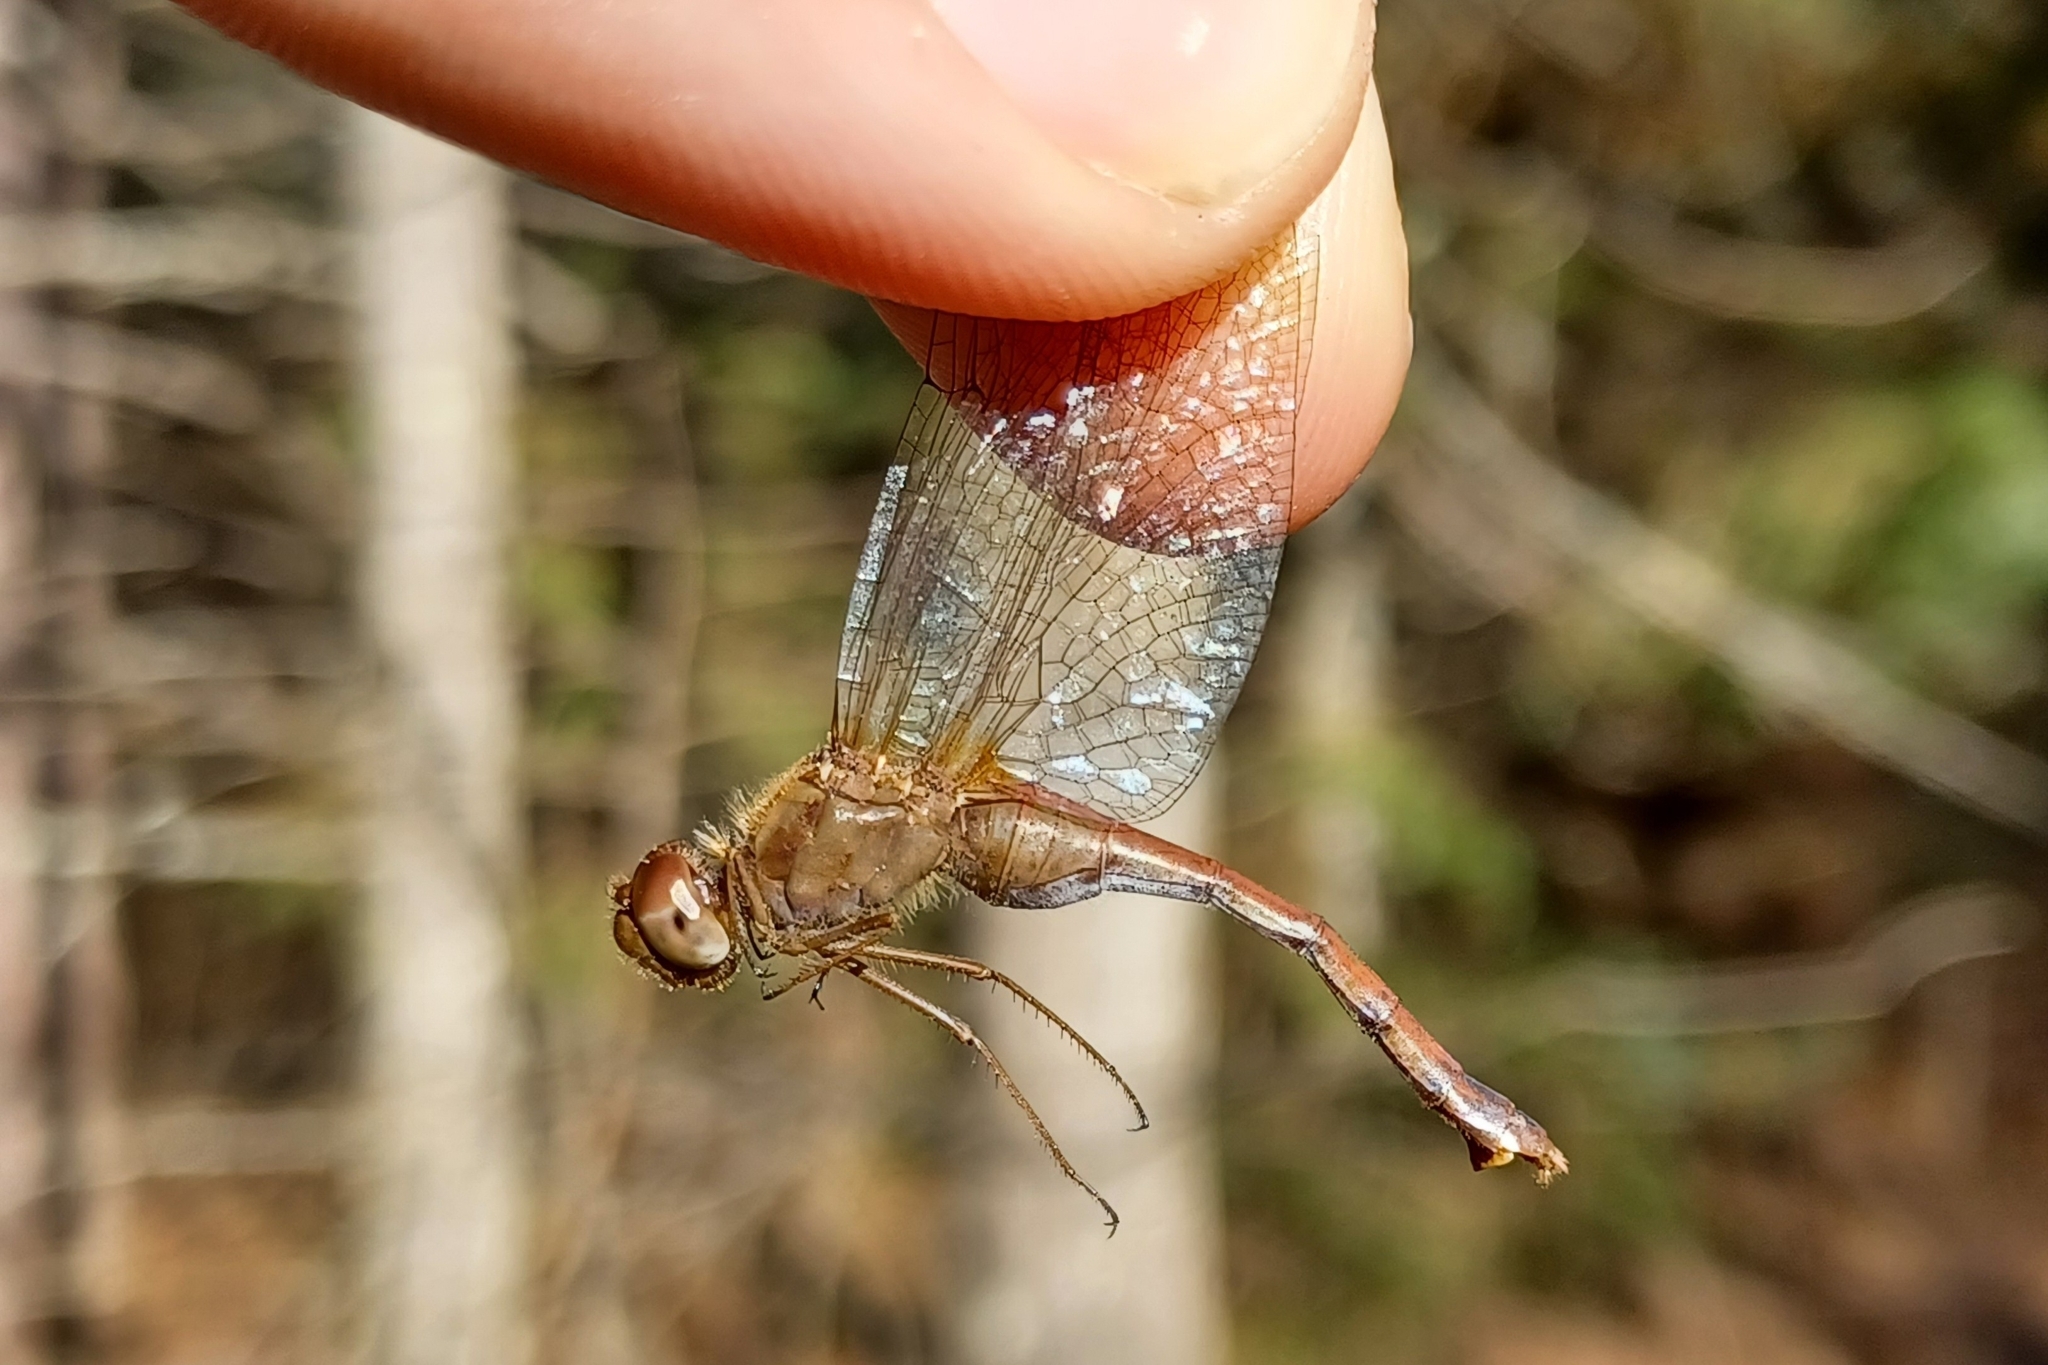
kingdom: Animalia
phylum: Arthropoda
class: Insecta
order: Odonata
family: Libellulidae
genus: Sympetrum
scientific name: Sympetrum vicinum
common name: Autumn meadowhawk
